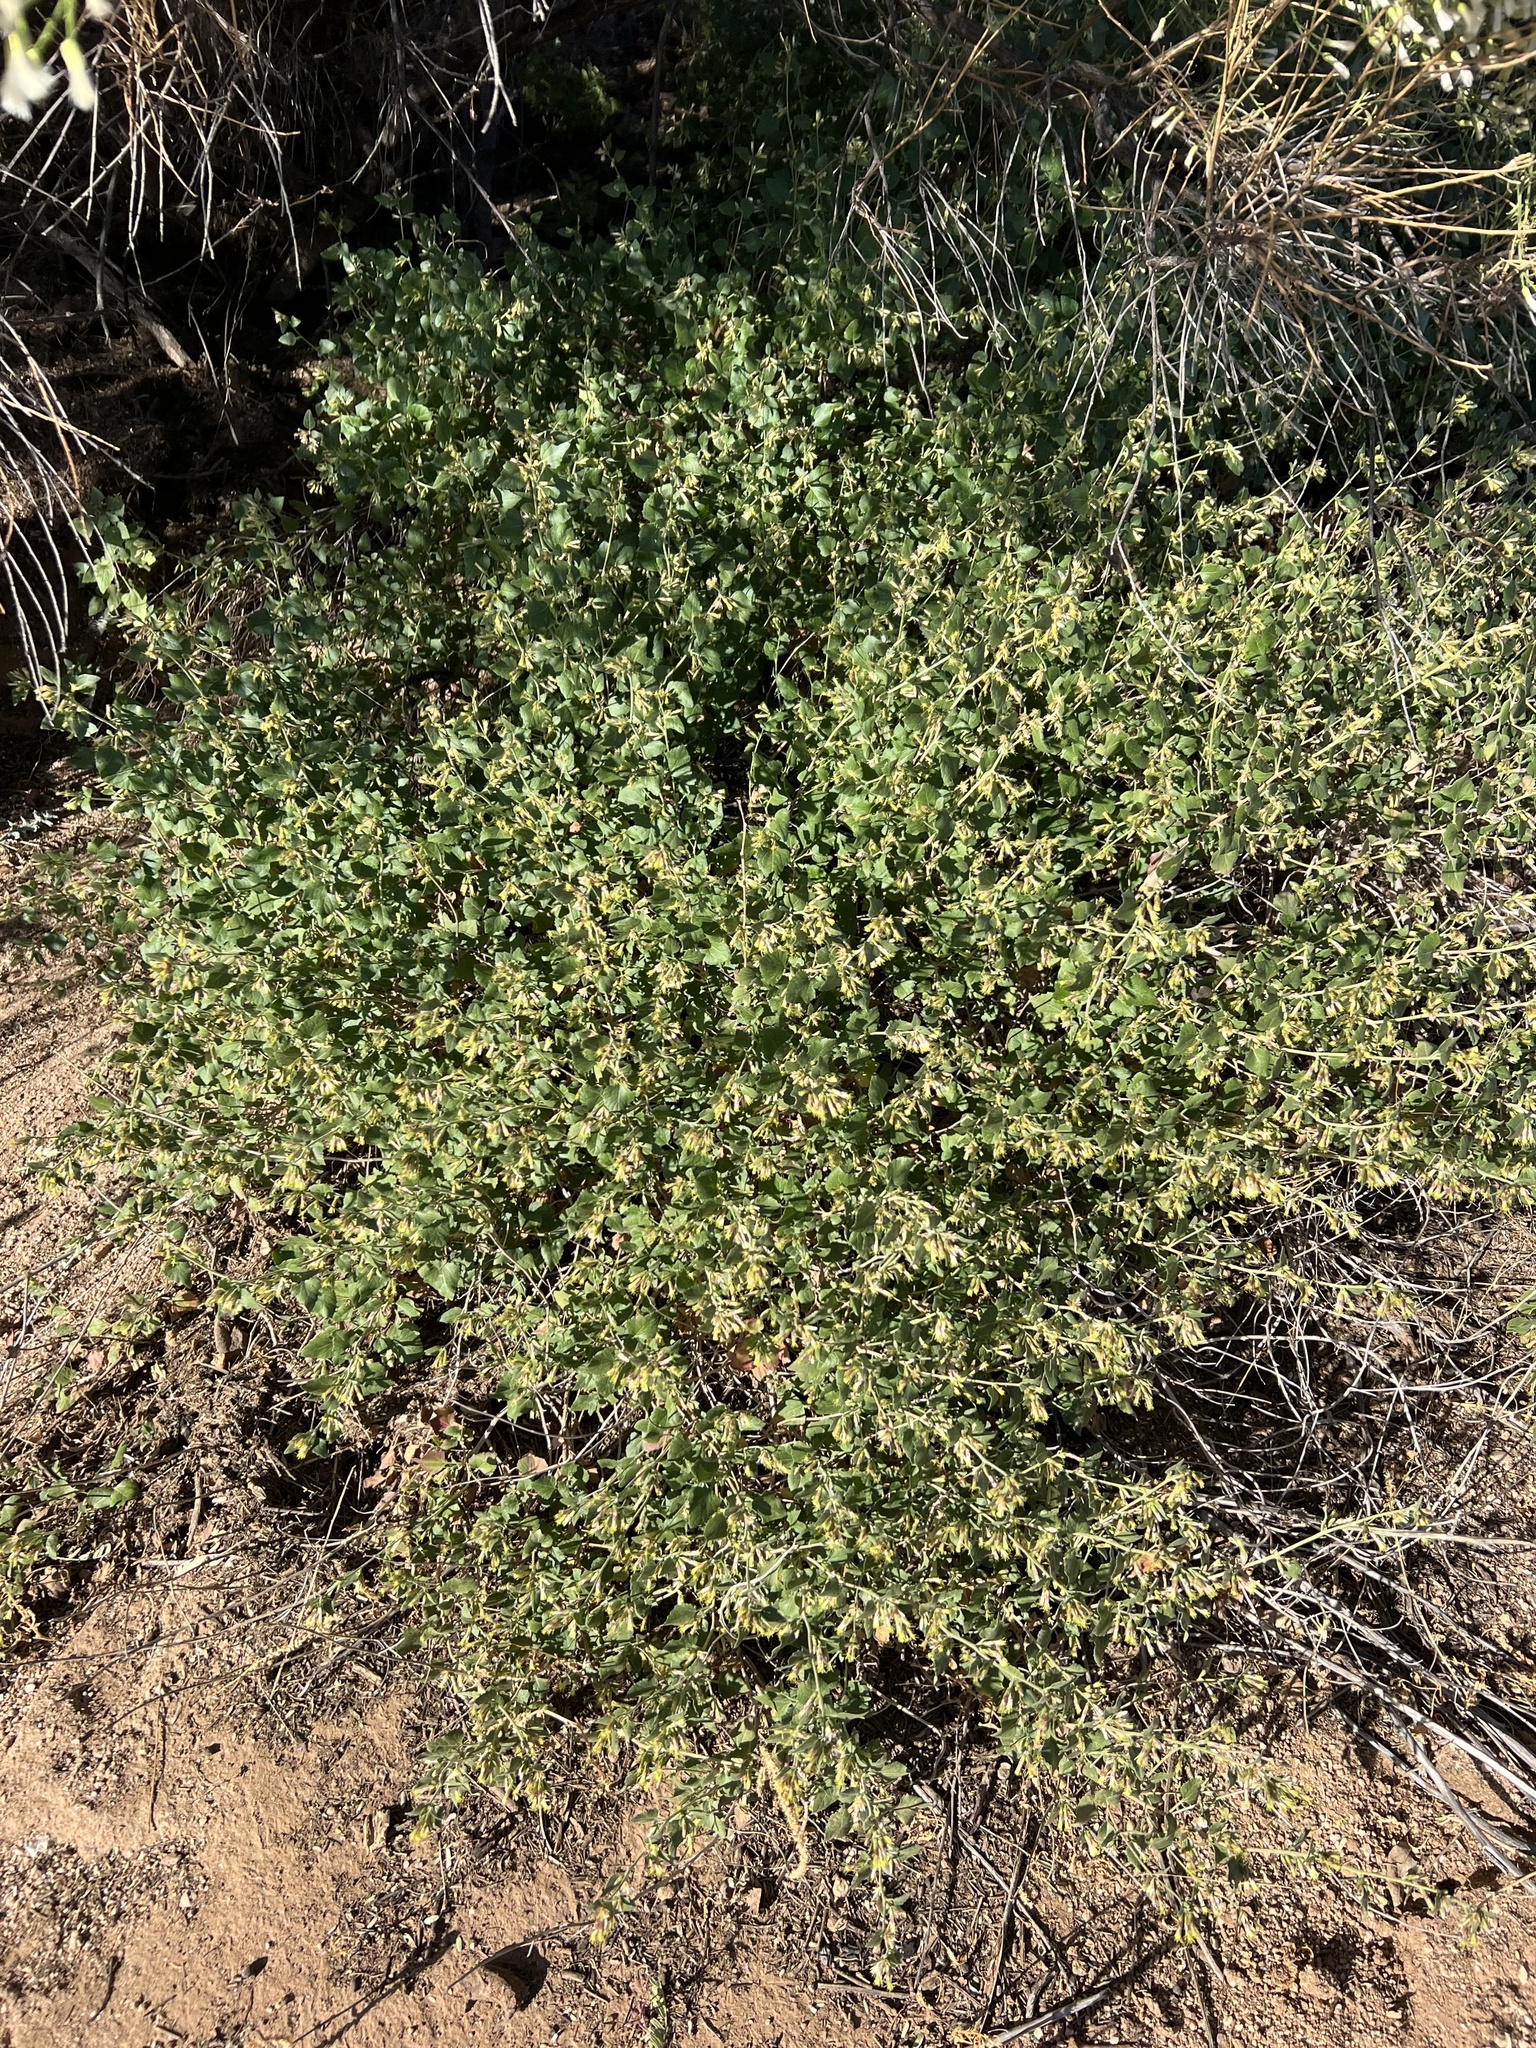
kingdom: Plantae
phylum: Tracheophyta
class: Magnoliopsida
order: Asterales
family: Asteraceae
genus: Brickellia
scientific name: Brickellia californica
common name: California brickellbush
